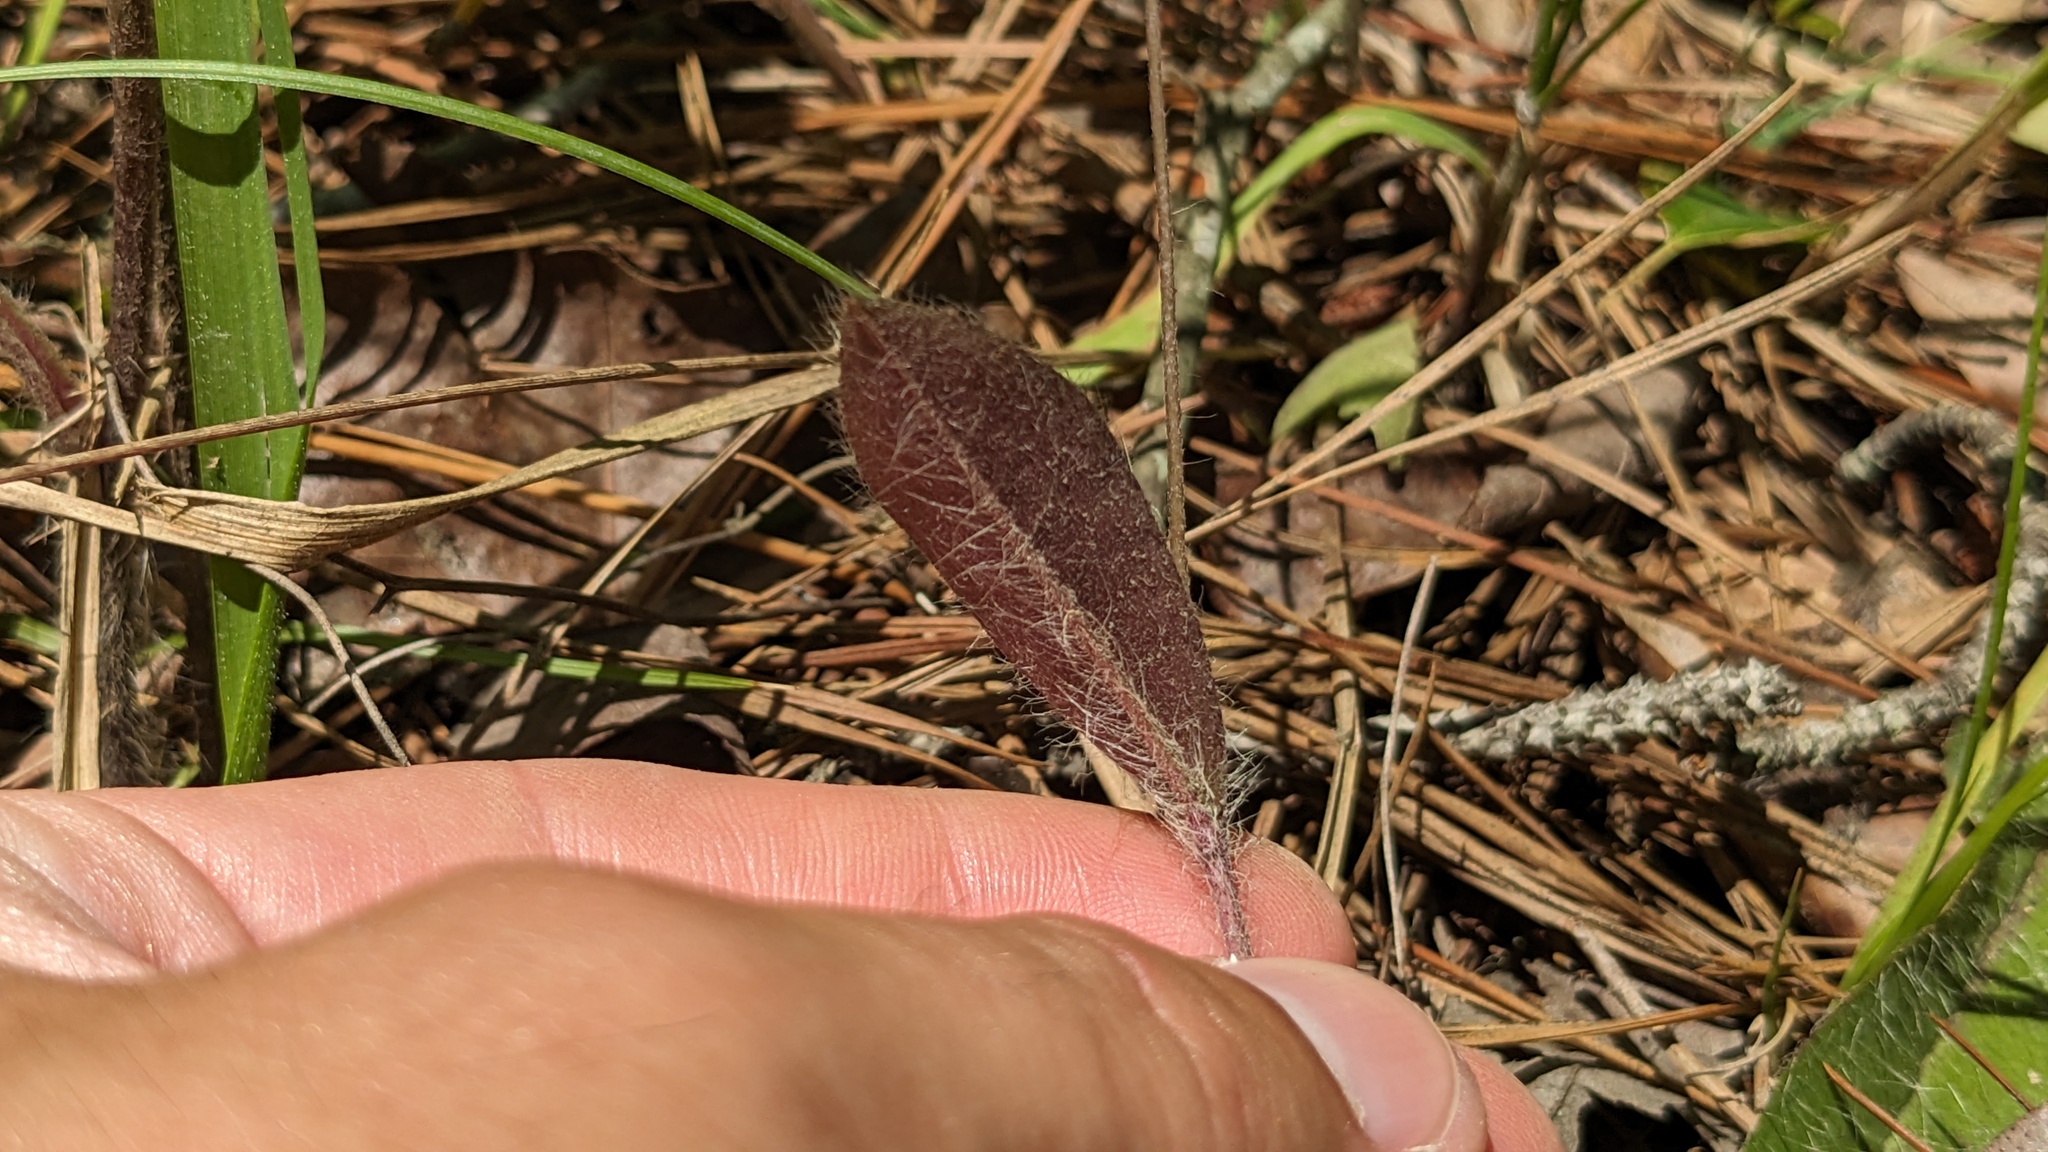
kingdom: Plantae
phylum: Tracheophyta
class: Magnoliopsida
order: Asterales
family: Asteraceae
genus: Hieracium
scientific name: Hieracium gronovii
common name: Beaked hawkweed
